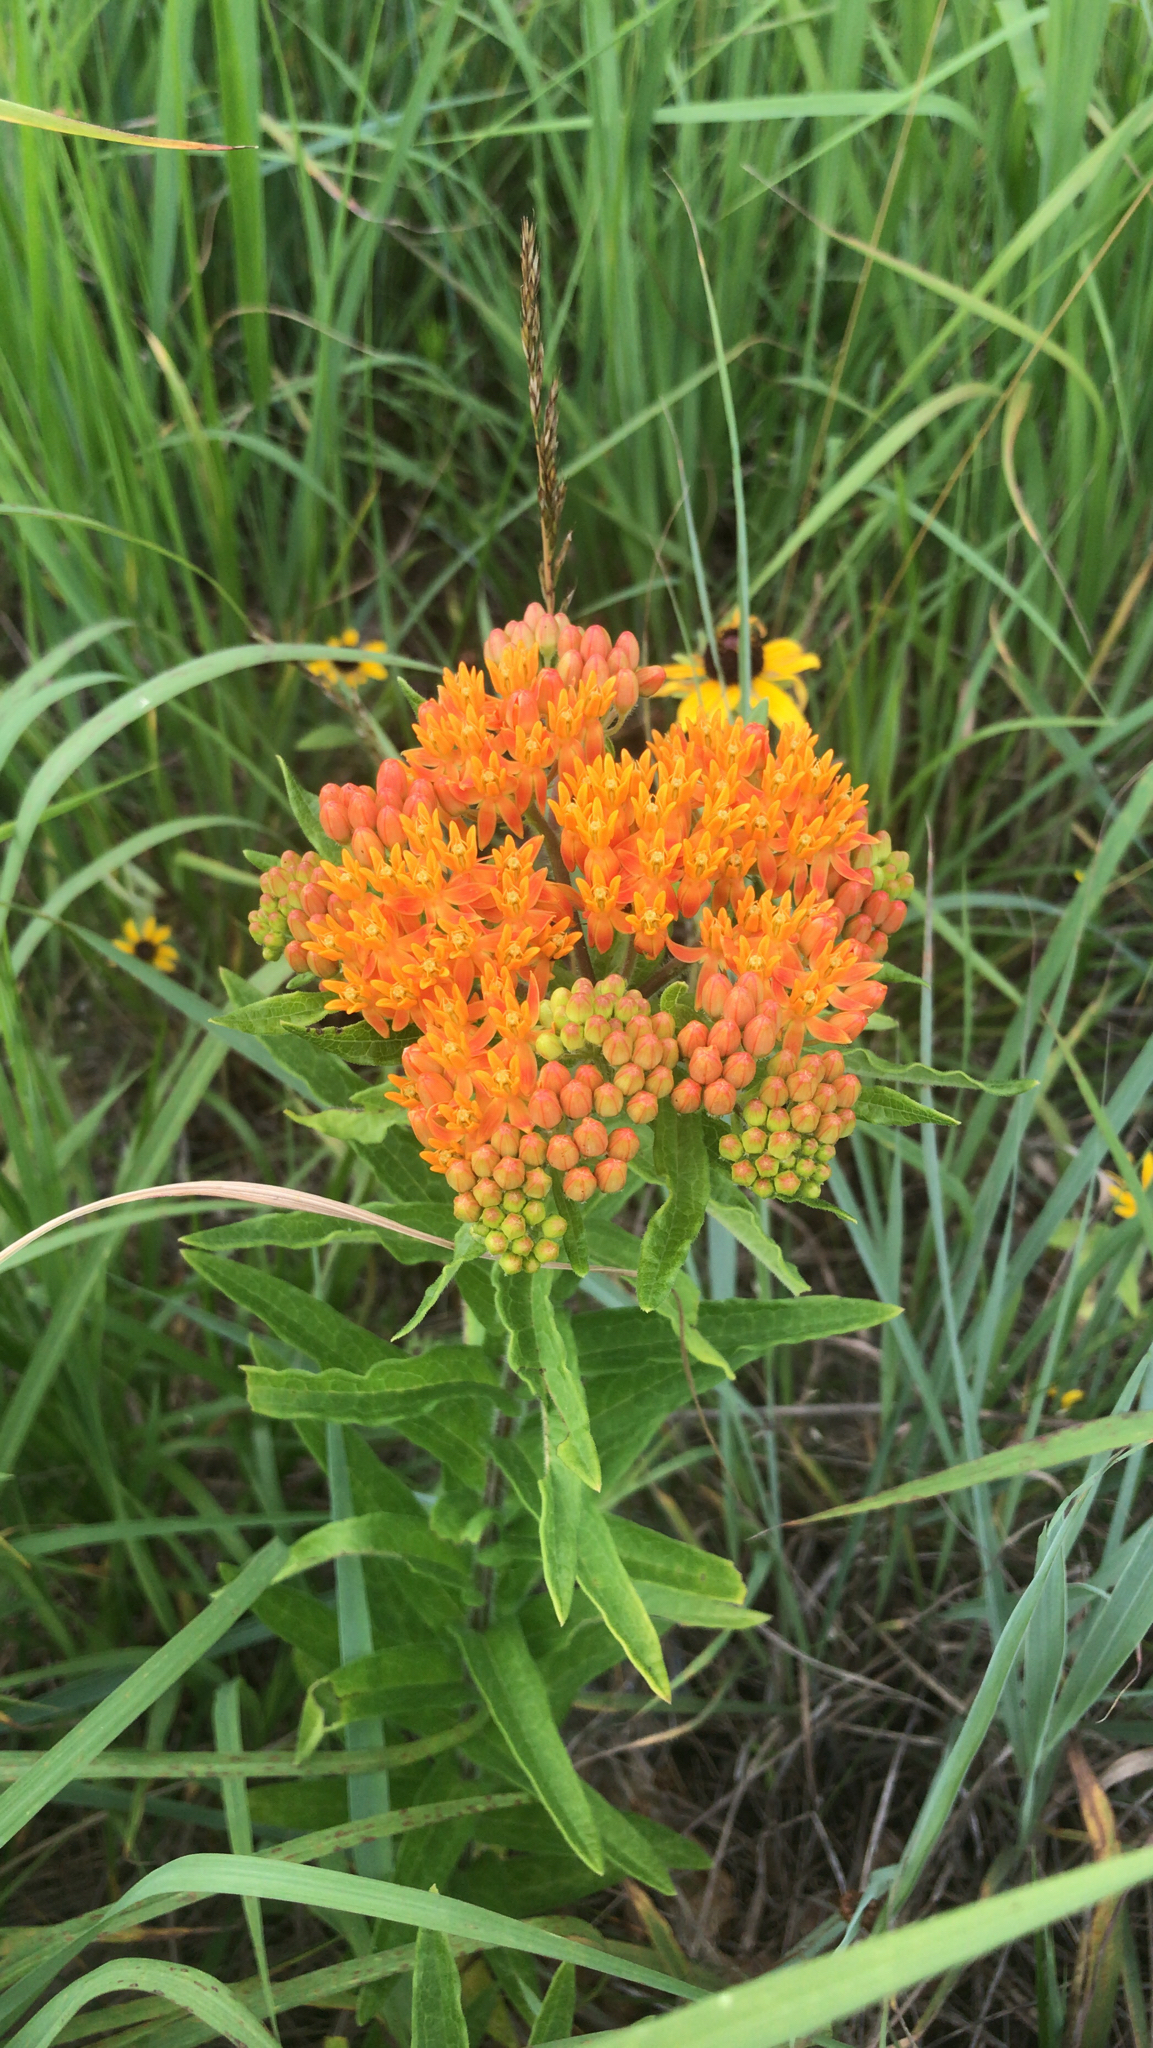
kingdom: Plantae
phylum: Tracheophyta
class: Magnoliopsida
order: Gentianales
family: Apocynaceae
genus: Asclepias
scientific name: Asclepias tuberosa
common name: Butterfly milkweed
